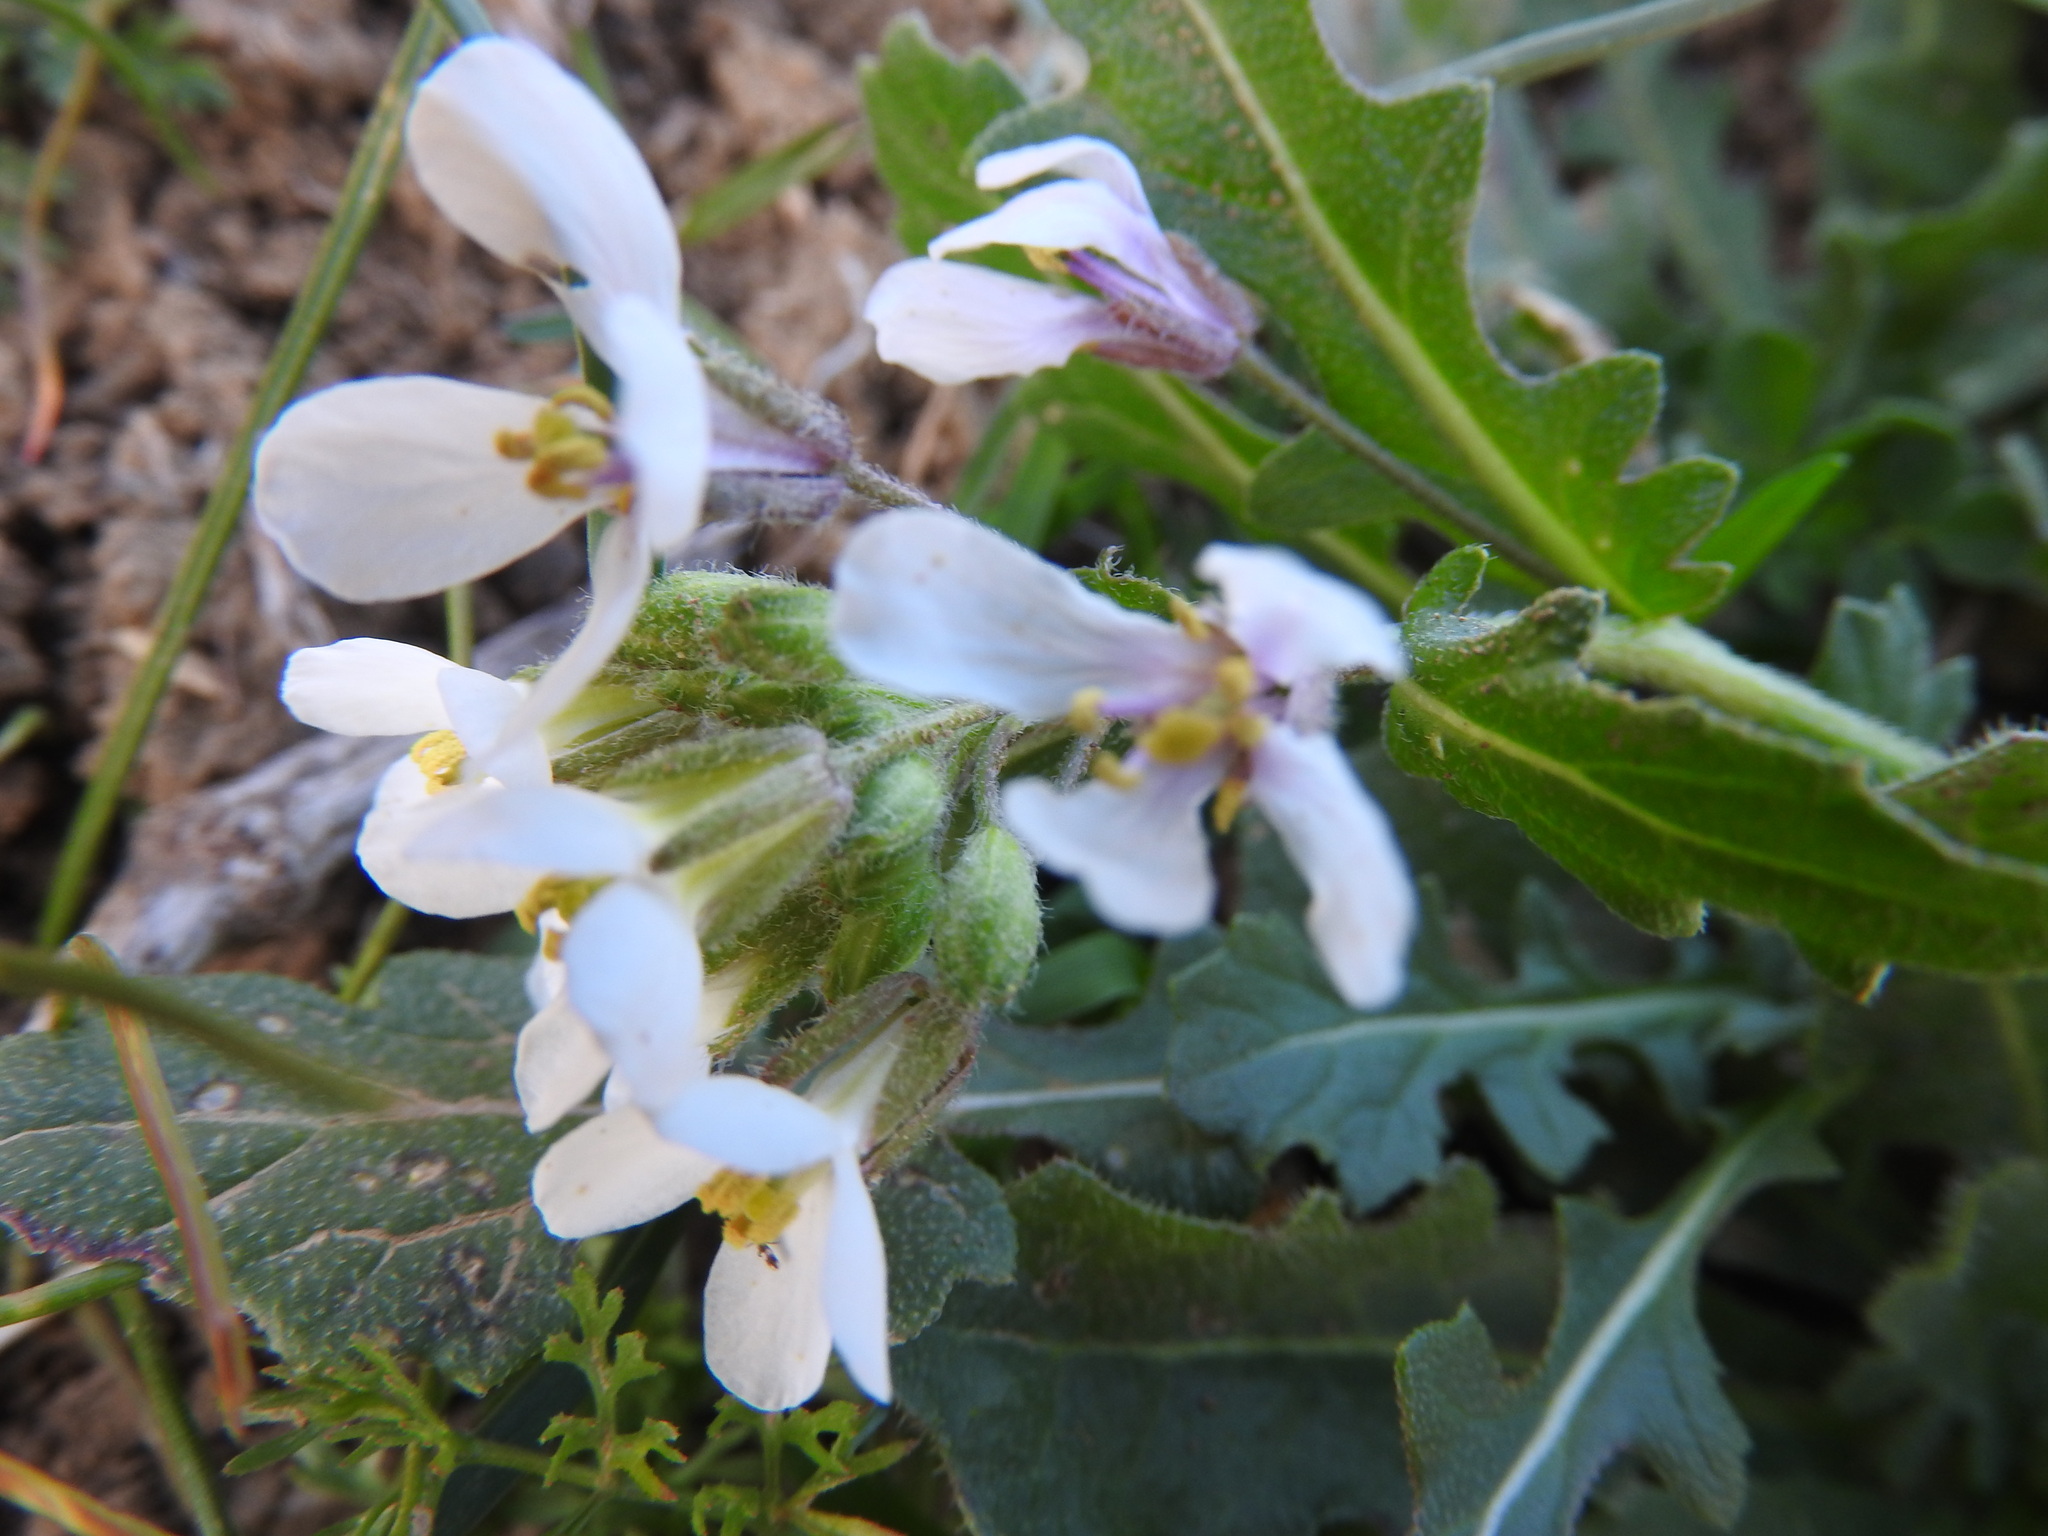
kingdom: Plantae
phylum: Tracheophyta
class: Magnoliopsida
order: Brassicales
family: Brassicaceae
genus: Diplotaxis
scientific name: Diplotaxis erucoides
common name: White rocket
